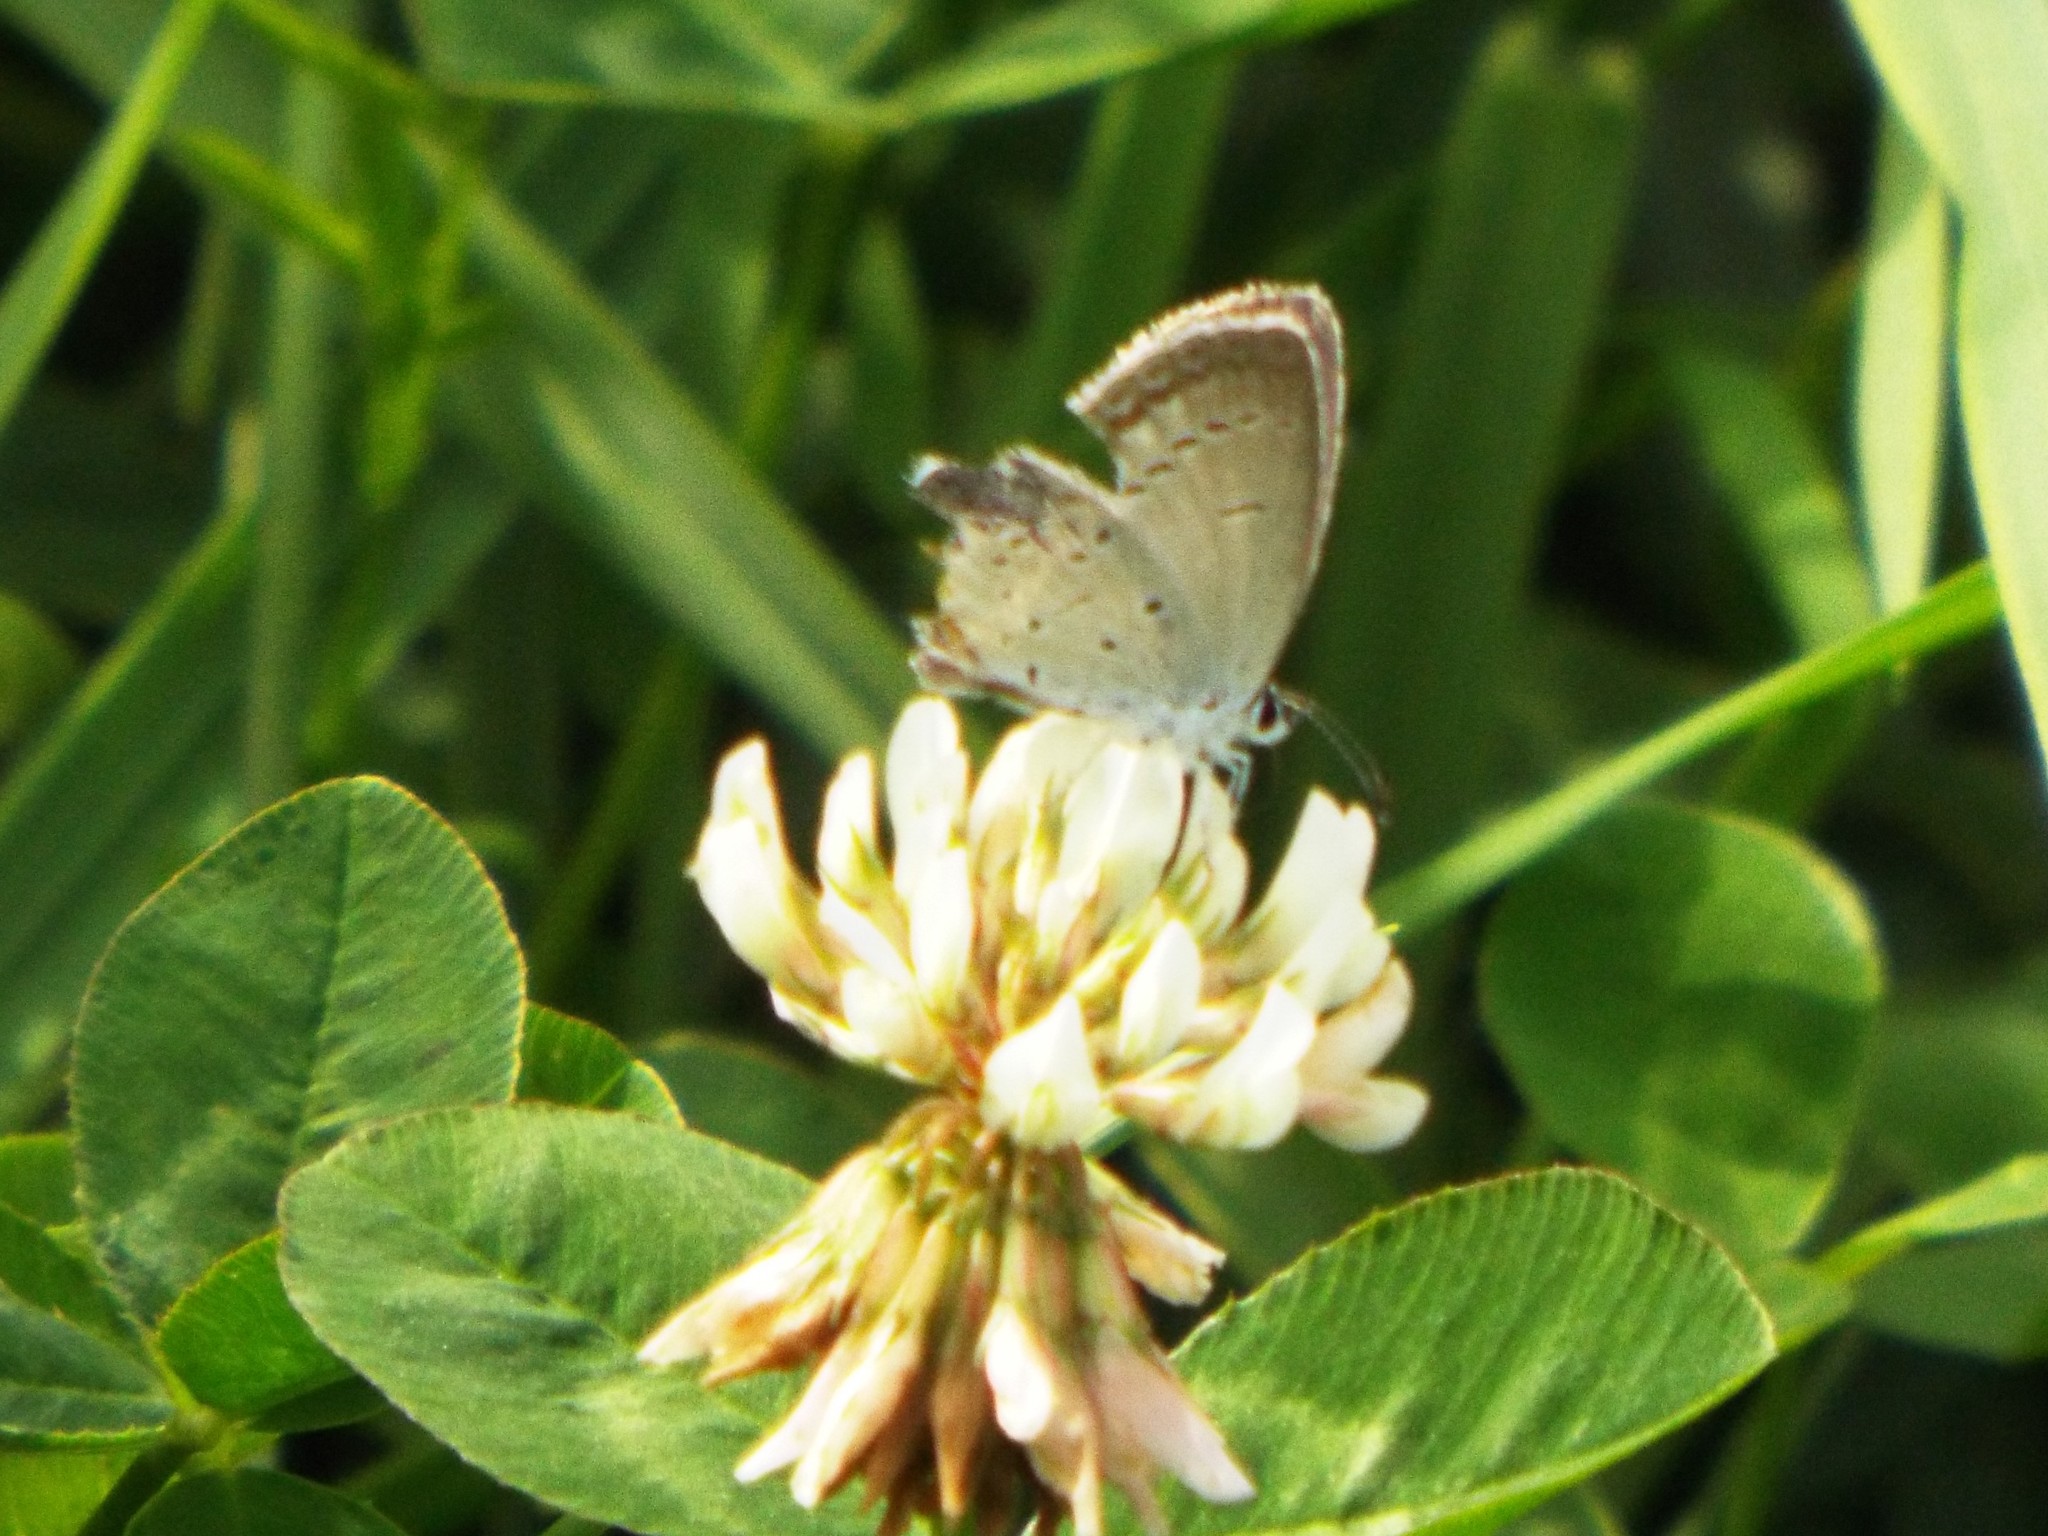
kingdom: Animalia
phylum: Arthropoda
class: Insecta
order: Lepidoptera
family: Lycaenidae
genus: Elkalyce
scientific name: Elkalyce comyntas
